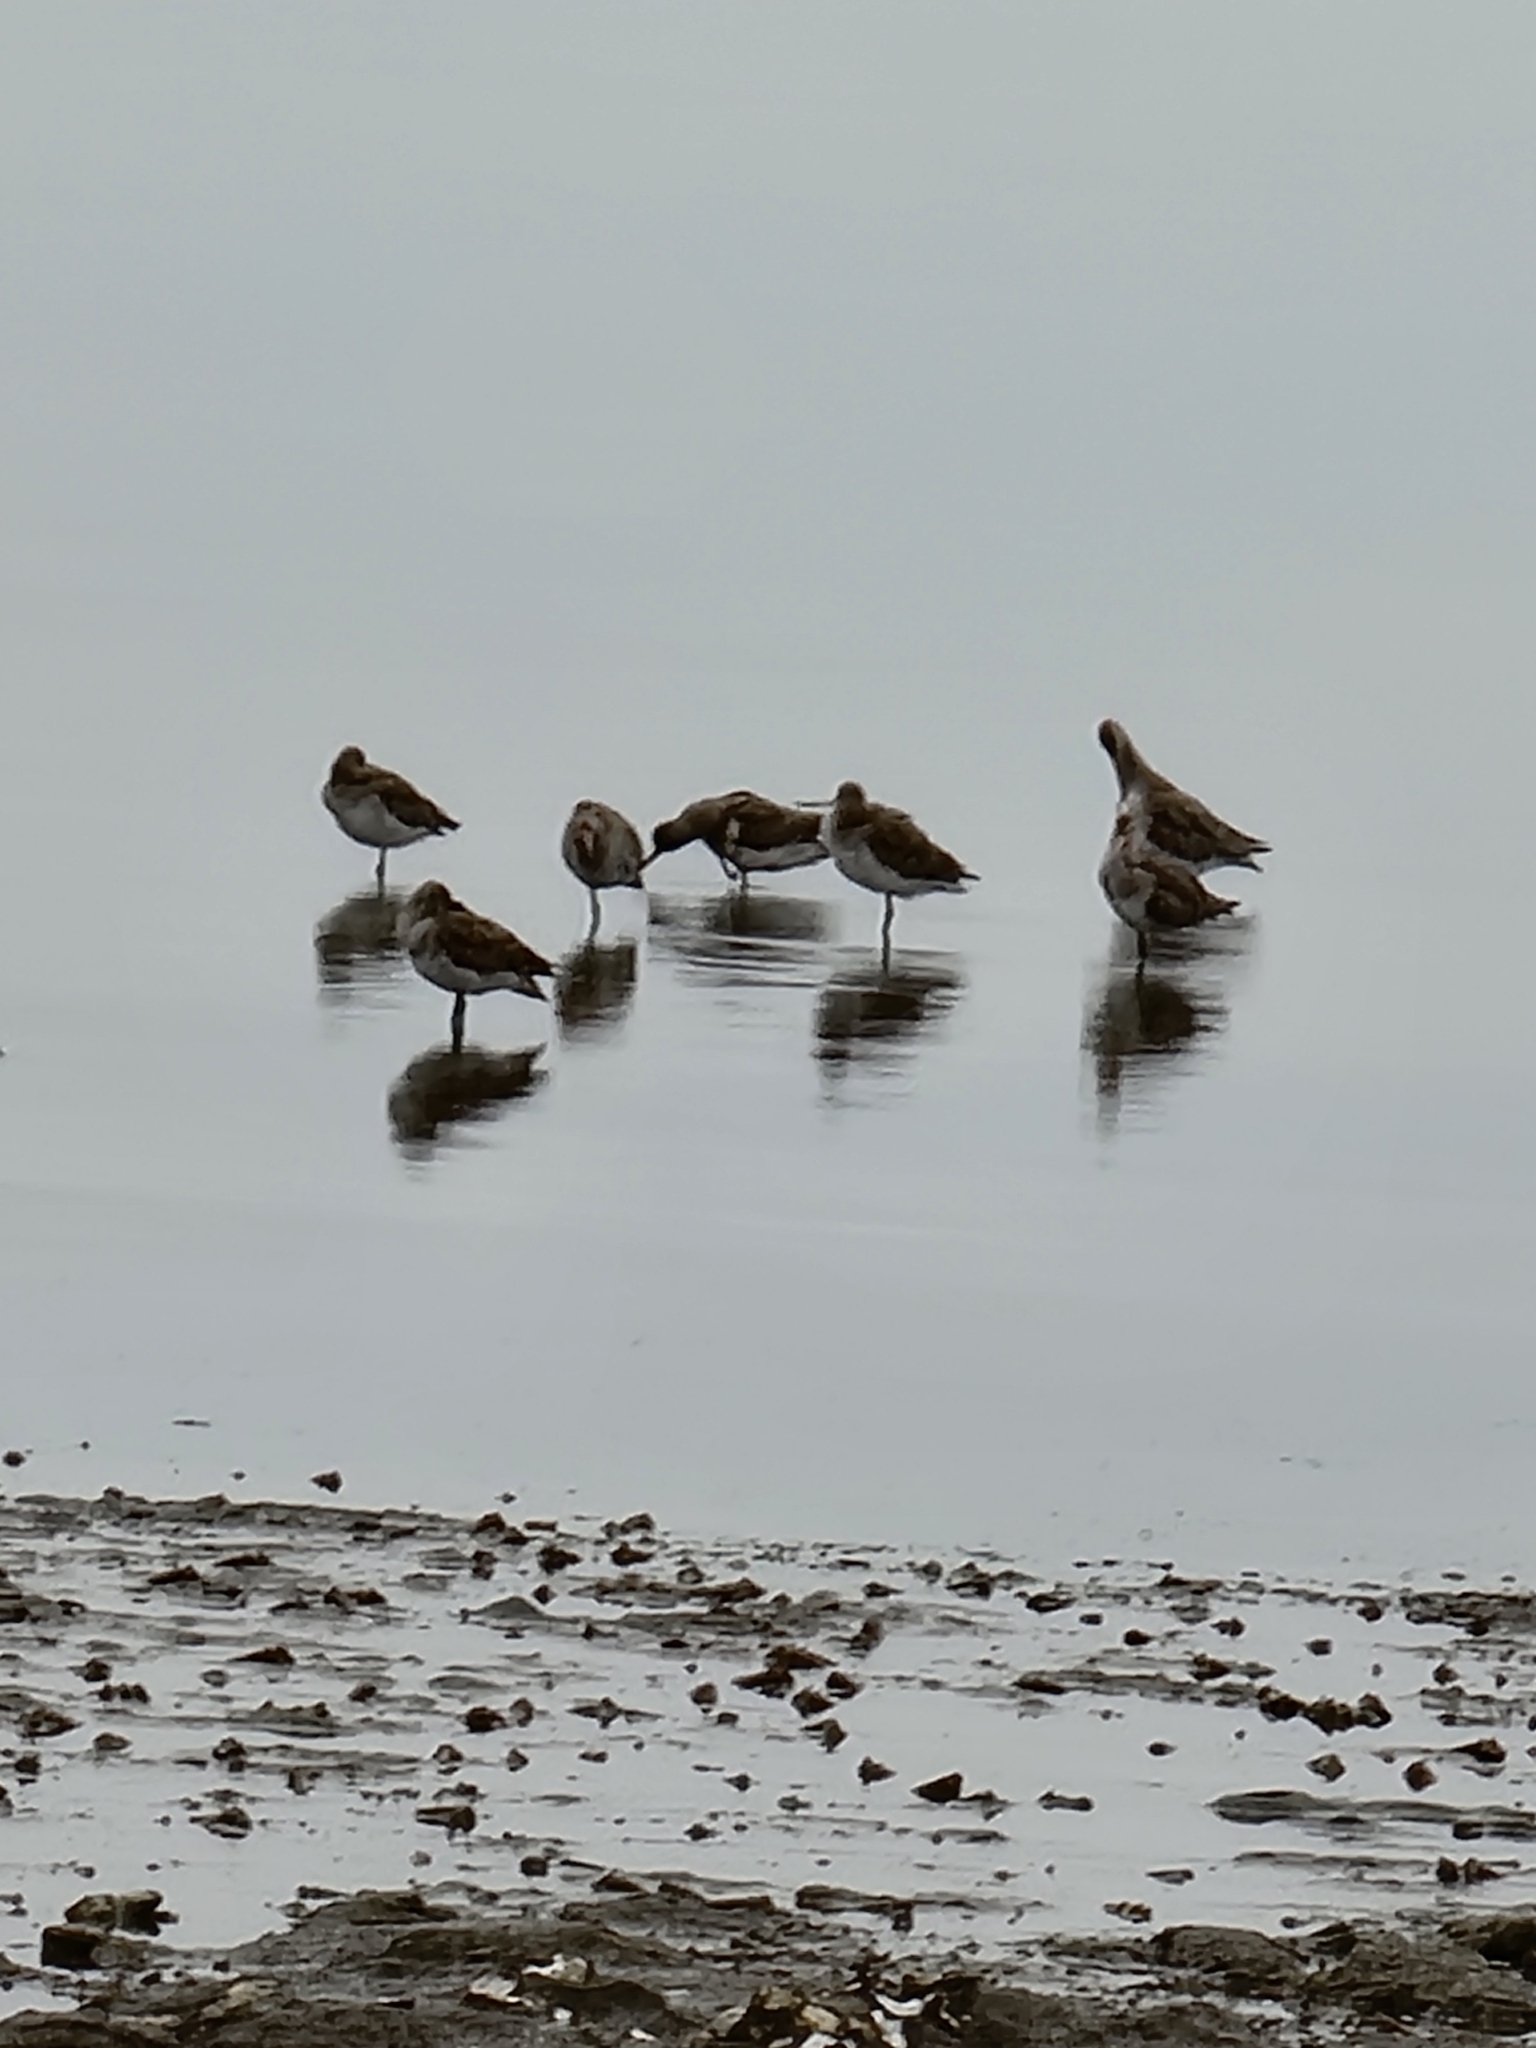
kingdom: Animalia
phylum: Chordata
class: Aves
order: Charadriiformes
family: Scolopacidae
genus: Limosa
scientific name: Limosa lapponica
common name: Bar-tailed godwit
